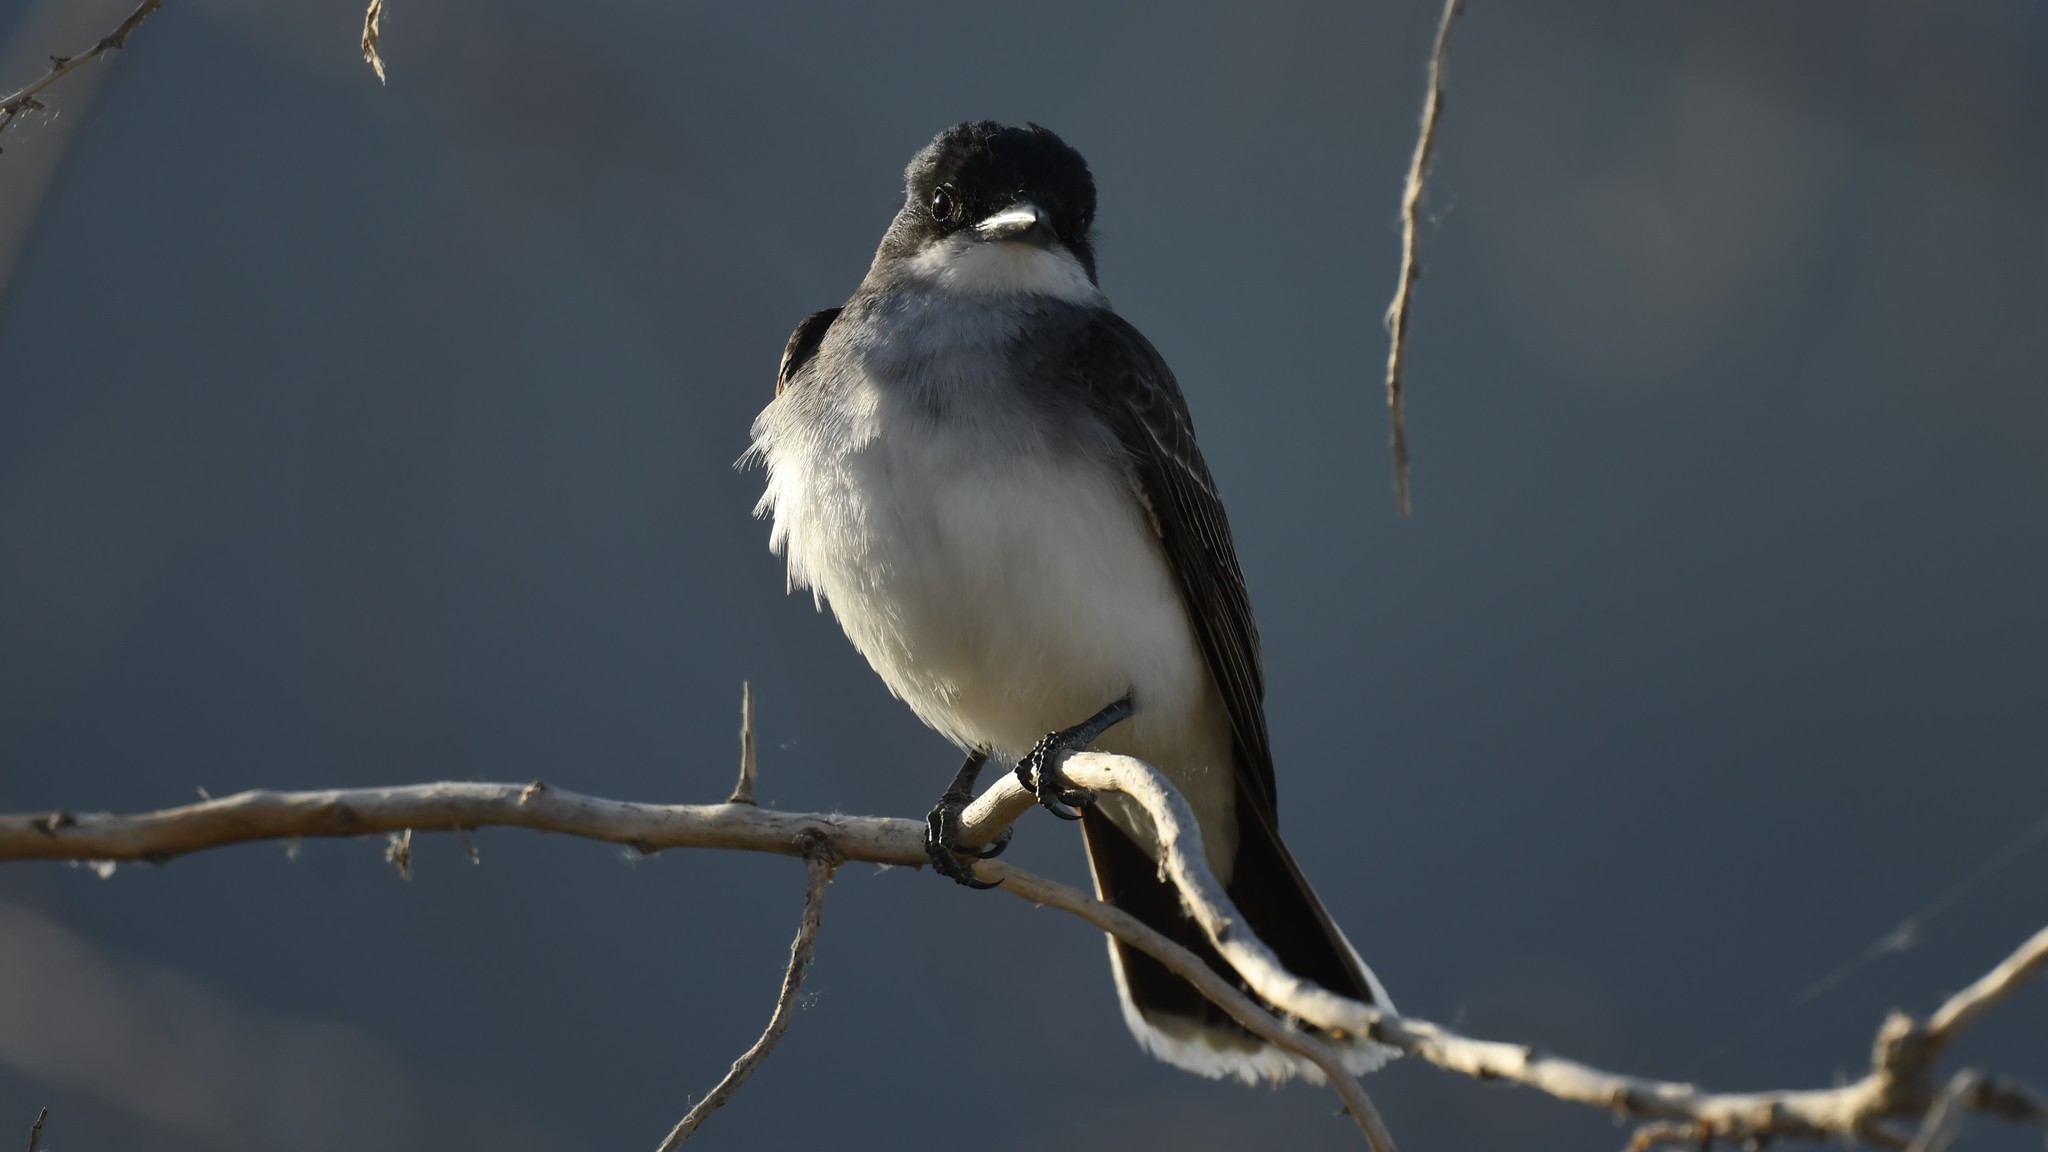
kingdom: Animalia
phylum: Chordata
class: Aves
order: Passeriformes
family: Tyrannidae
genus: Tyrannus
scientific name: Tyrannus tyrannus
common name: Eastern kingbird
